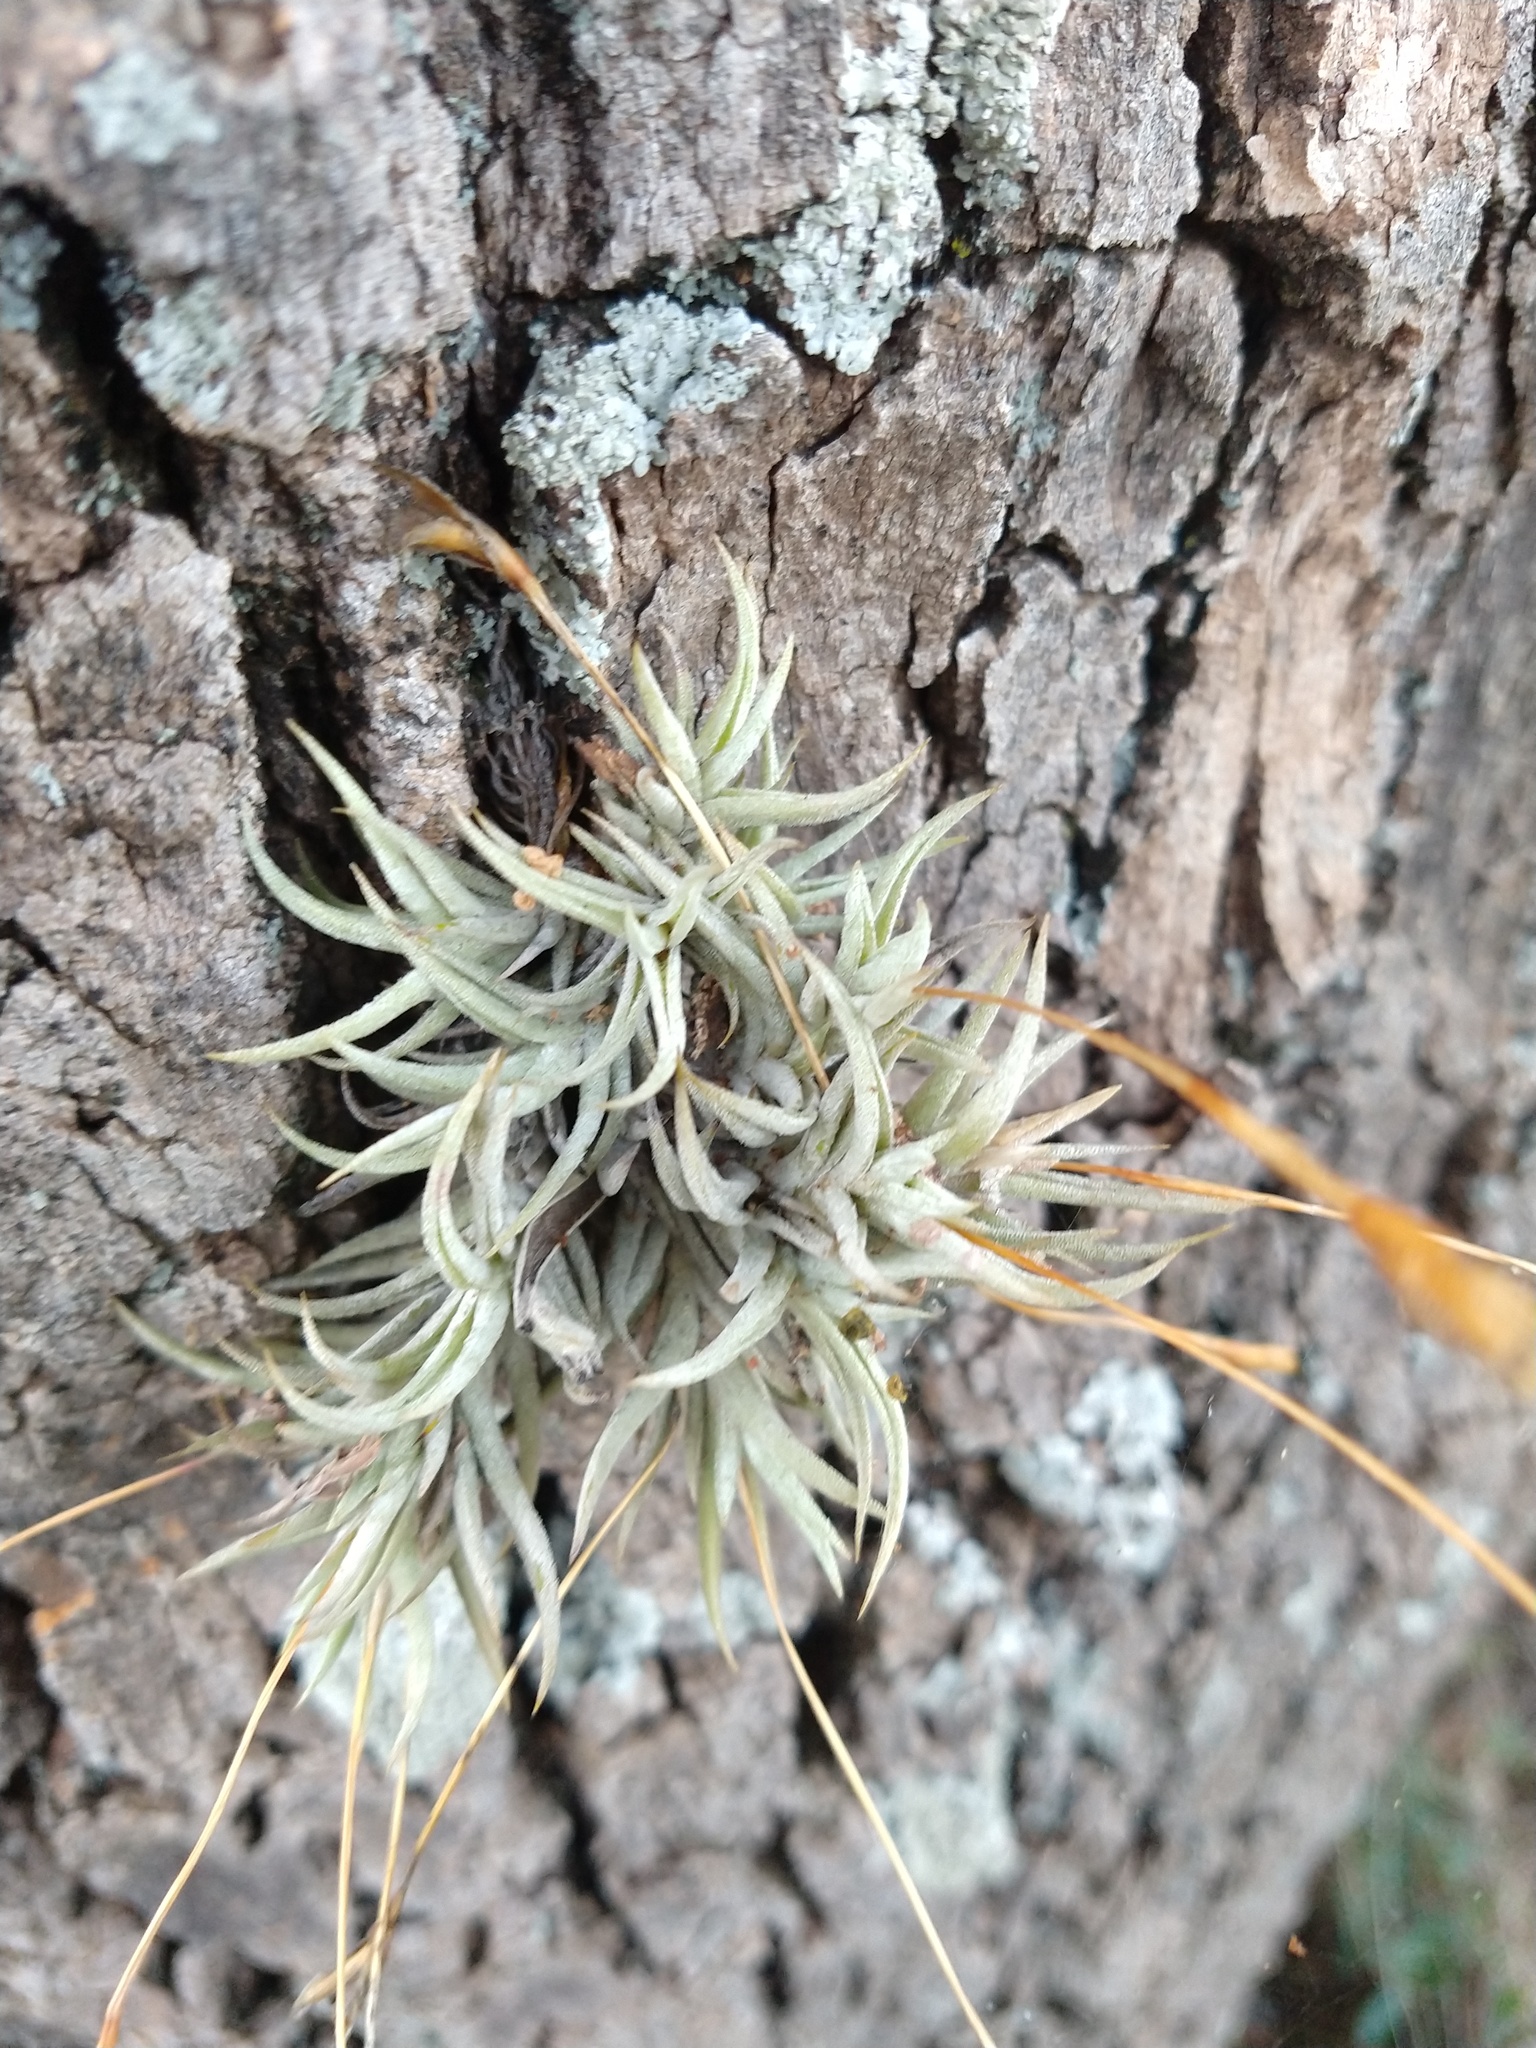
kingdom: Plantae
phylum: Tracheophyta
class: Liliopsida
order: Poales
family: Bromeliaceae
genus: Tillandsia
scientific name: Tillandsia rectangula
